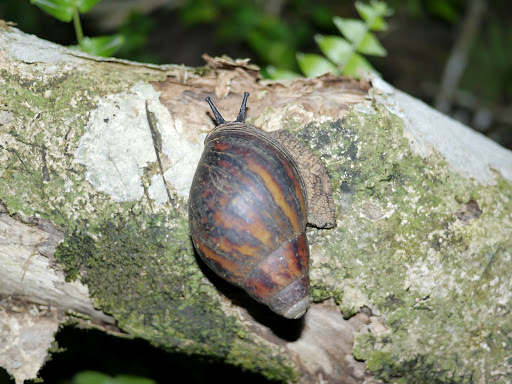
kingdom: Animalia
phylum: Mollusca
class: Gastropoda
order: Stylommatophora
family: Achatinidae
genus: Archachatina
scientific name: Archachatina marginata
